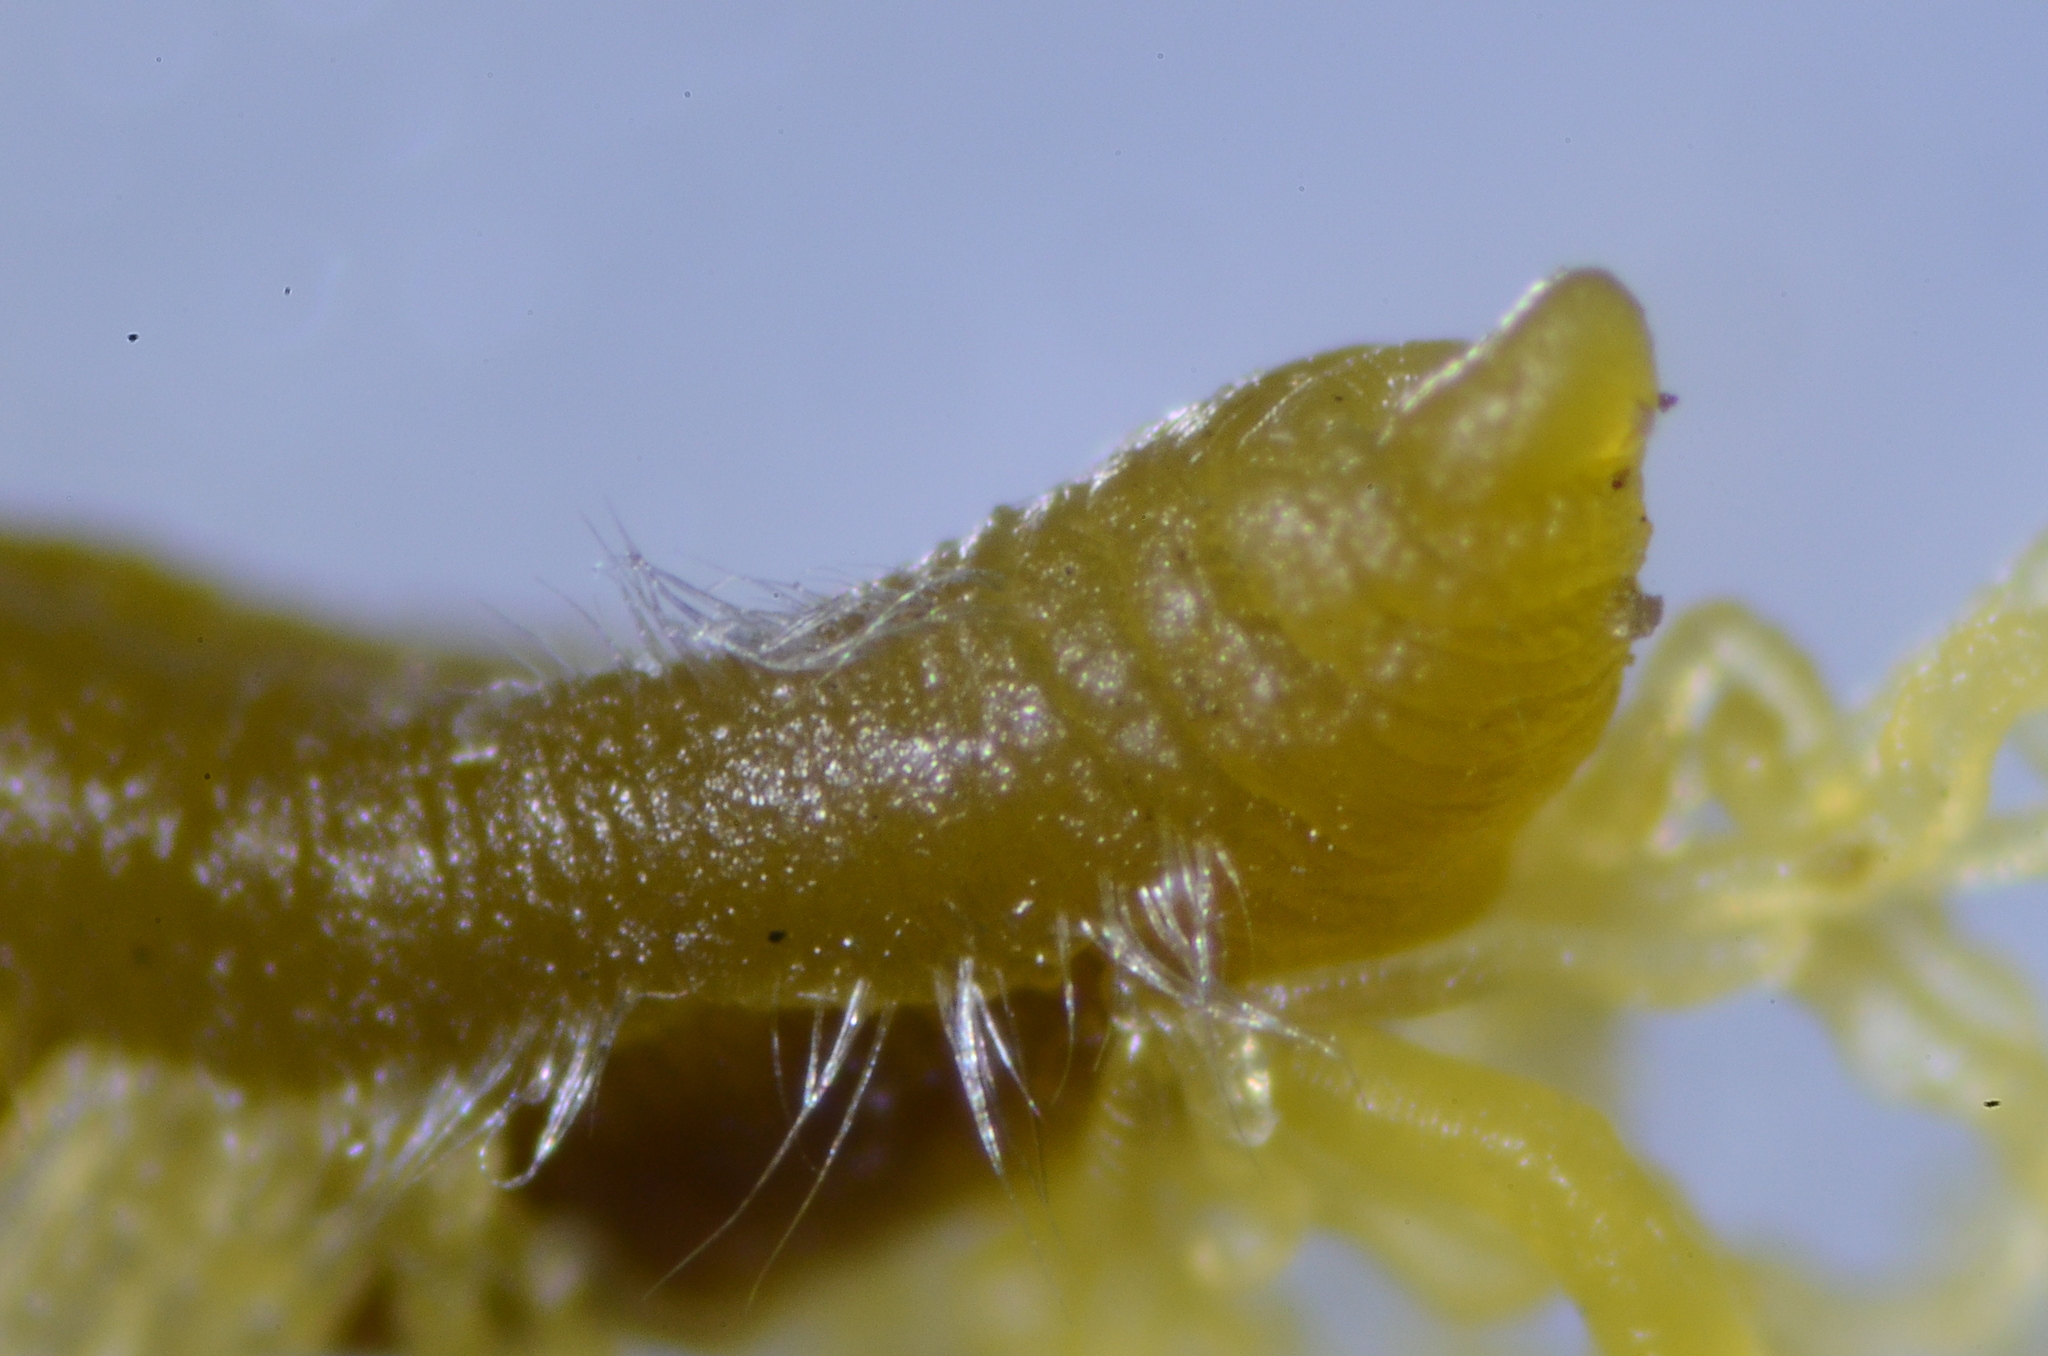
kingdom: Animalia
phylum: Annelida
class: Polychaeta
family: Cirratulidae
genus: Cirriformia
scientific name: Cirriformia moorei
